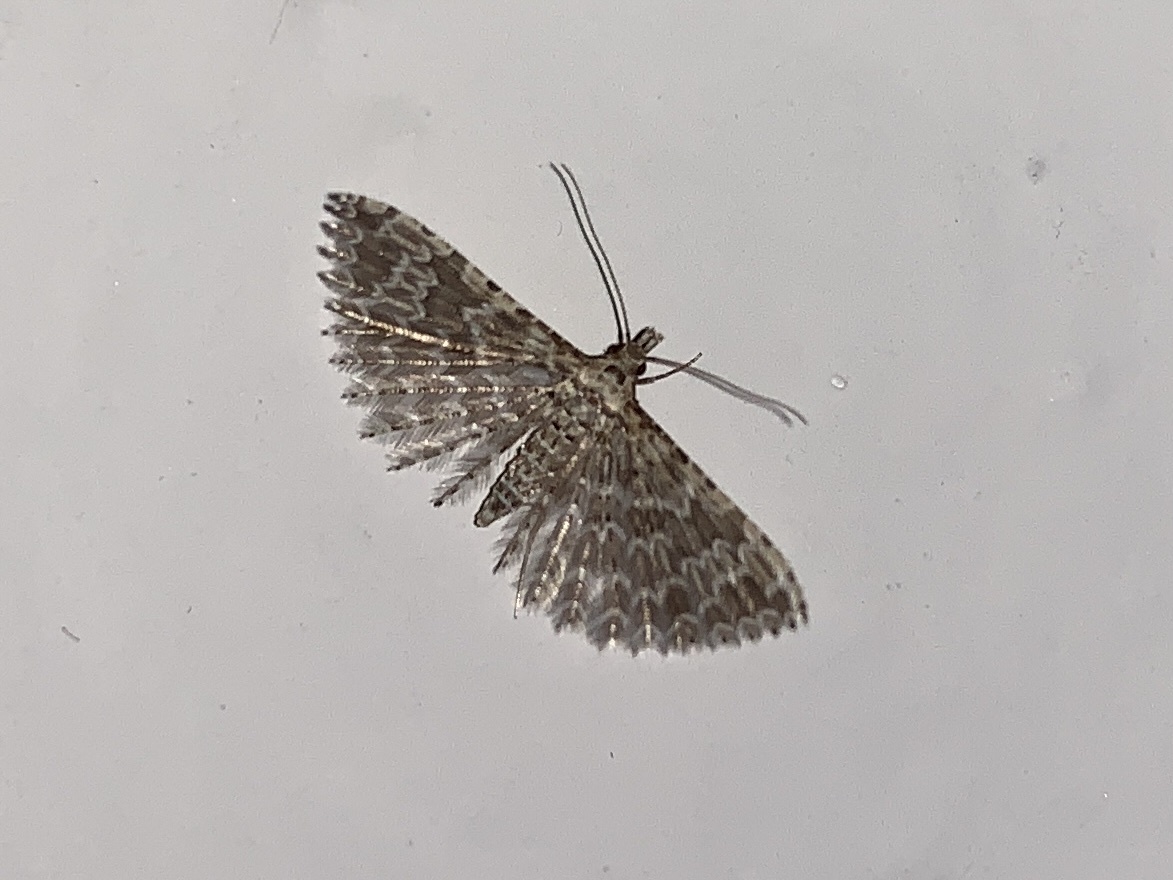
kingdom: Animalia
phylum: Arthropoda
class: Insecta
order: Lepidoptera
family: Alucitidae
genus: Alucita
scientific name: Alucita hexadactyla
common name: Twenty-plume moth
